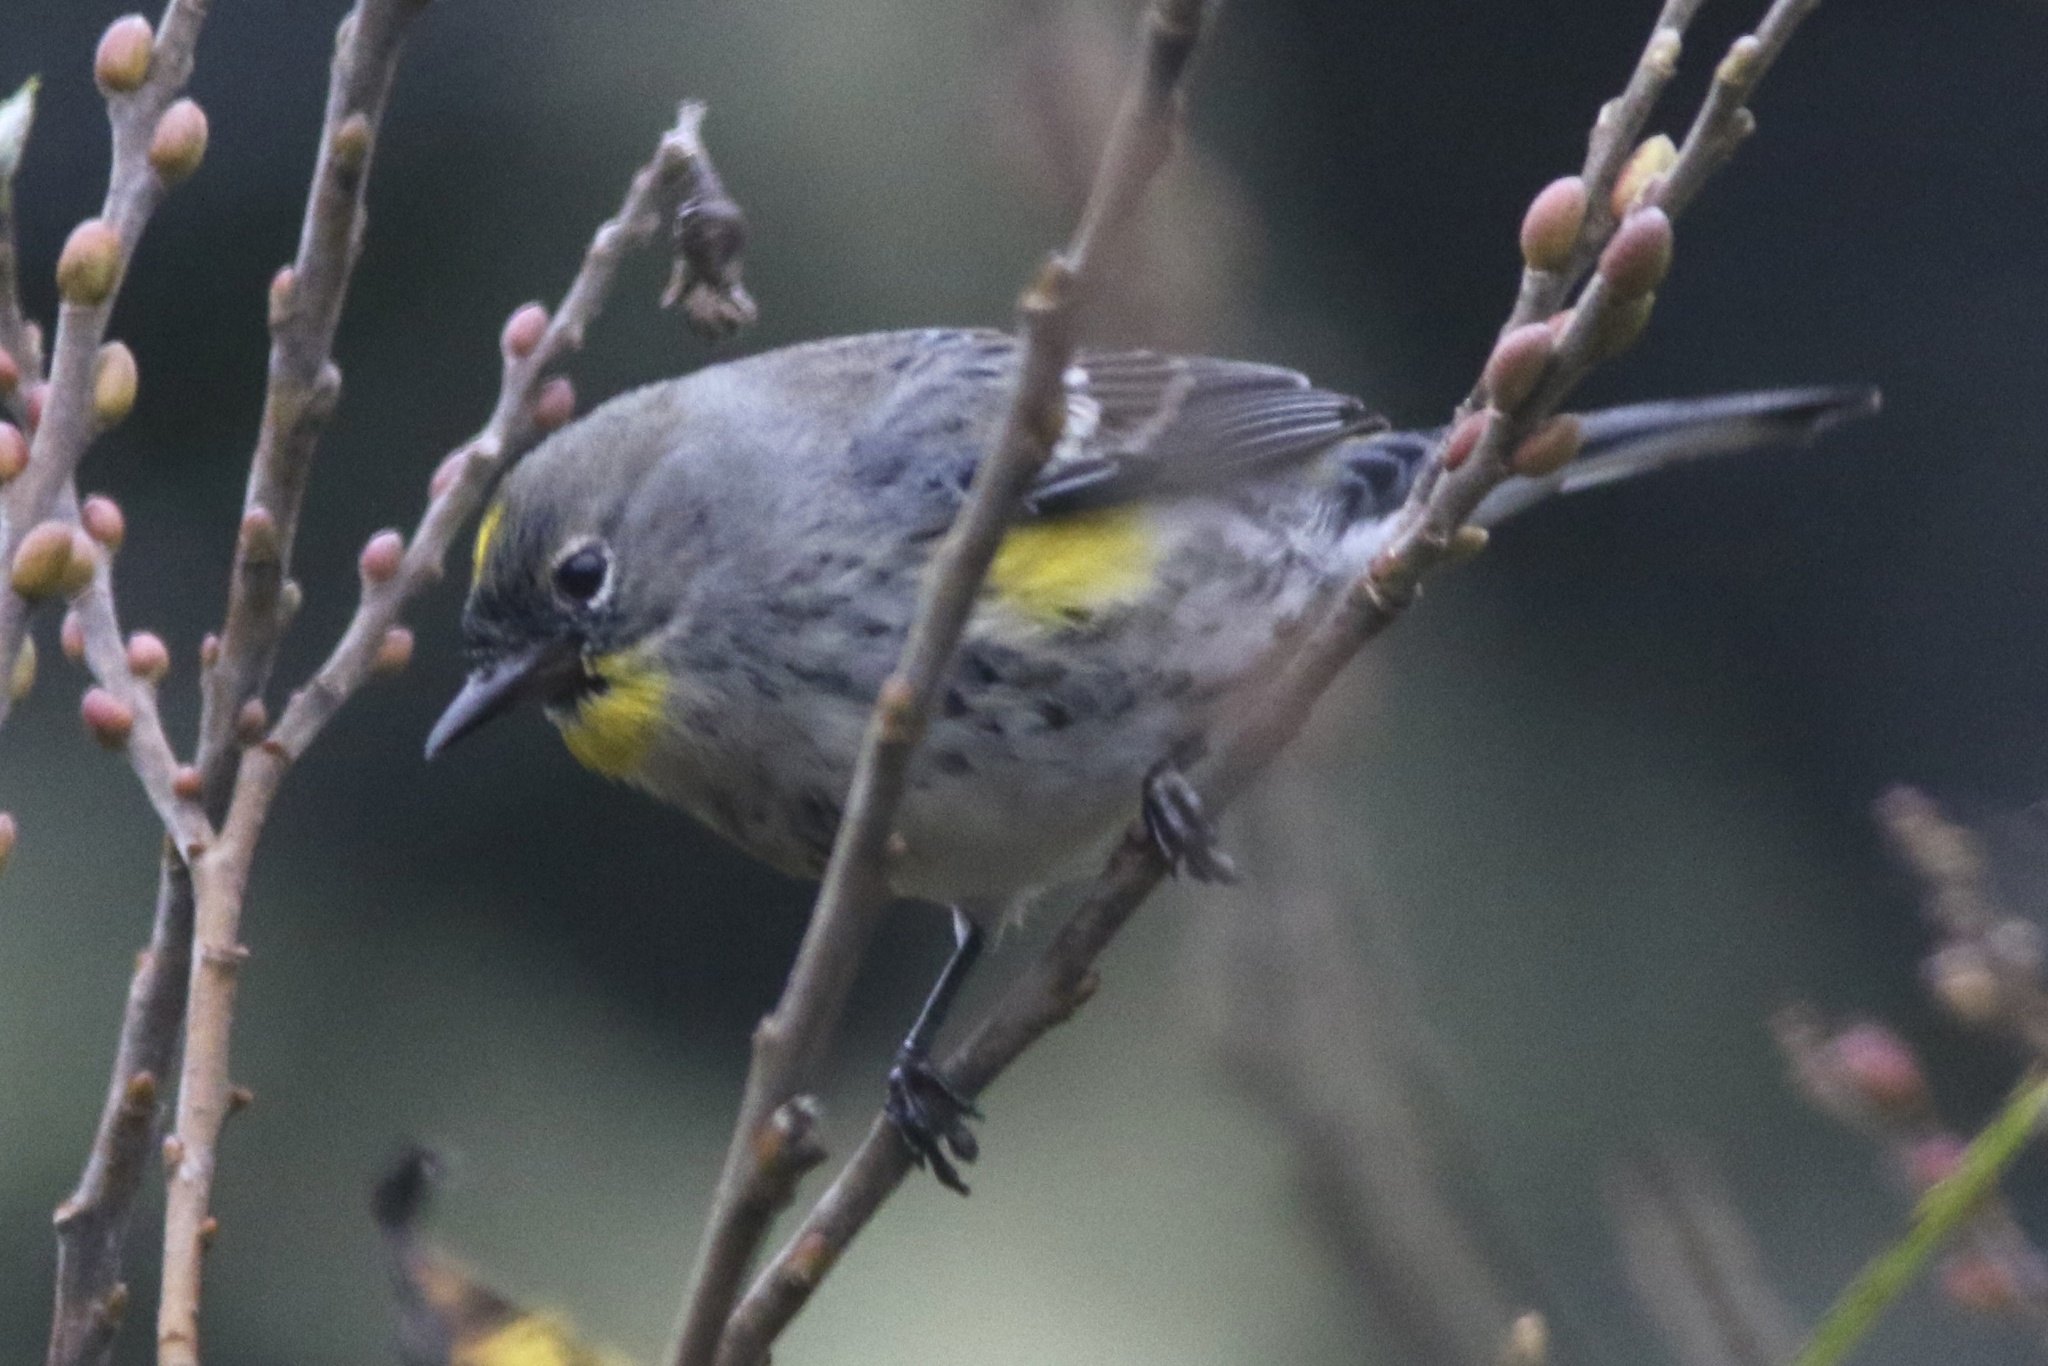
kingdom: Animalia
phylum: Chordata
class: Aves
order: Passeriformes
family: Parulidae
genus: Setophaga
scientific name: Setophaga coronata
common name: Myrtle warbler
